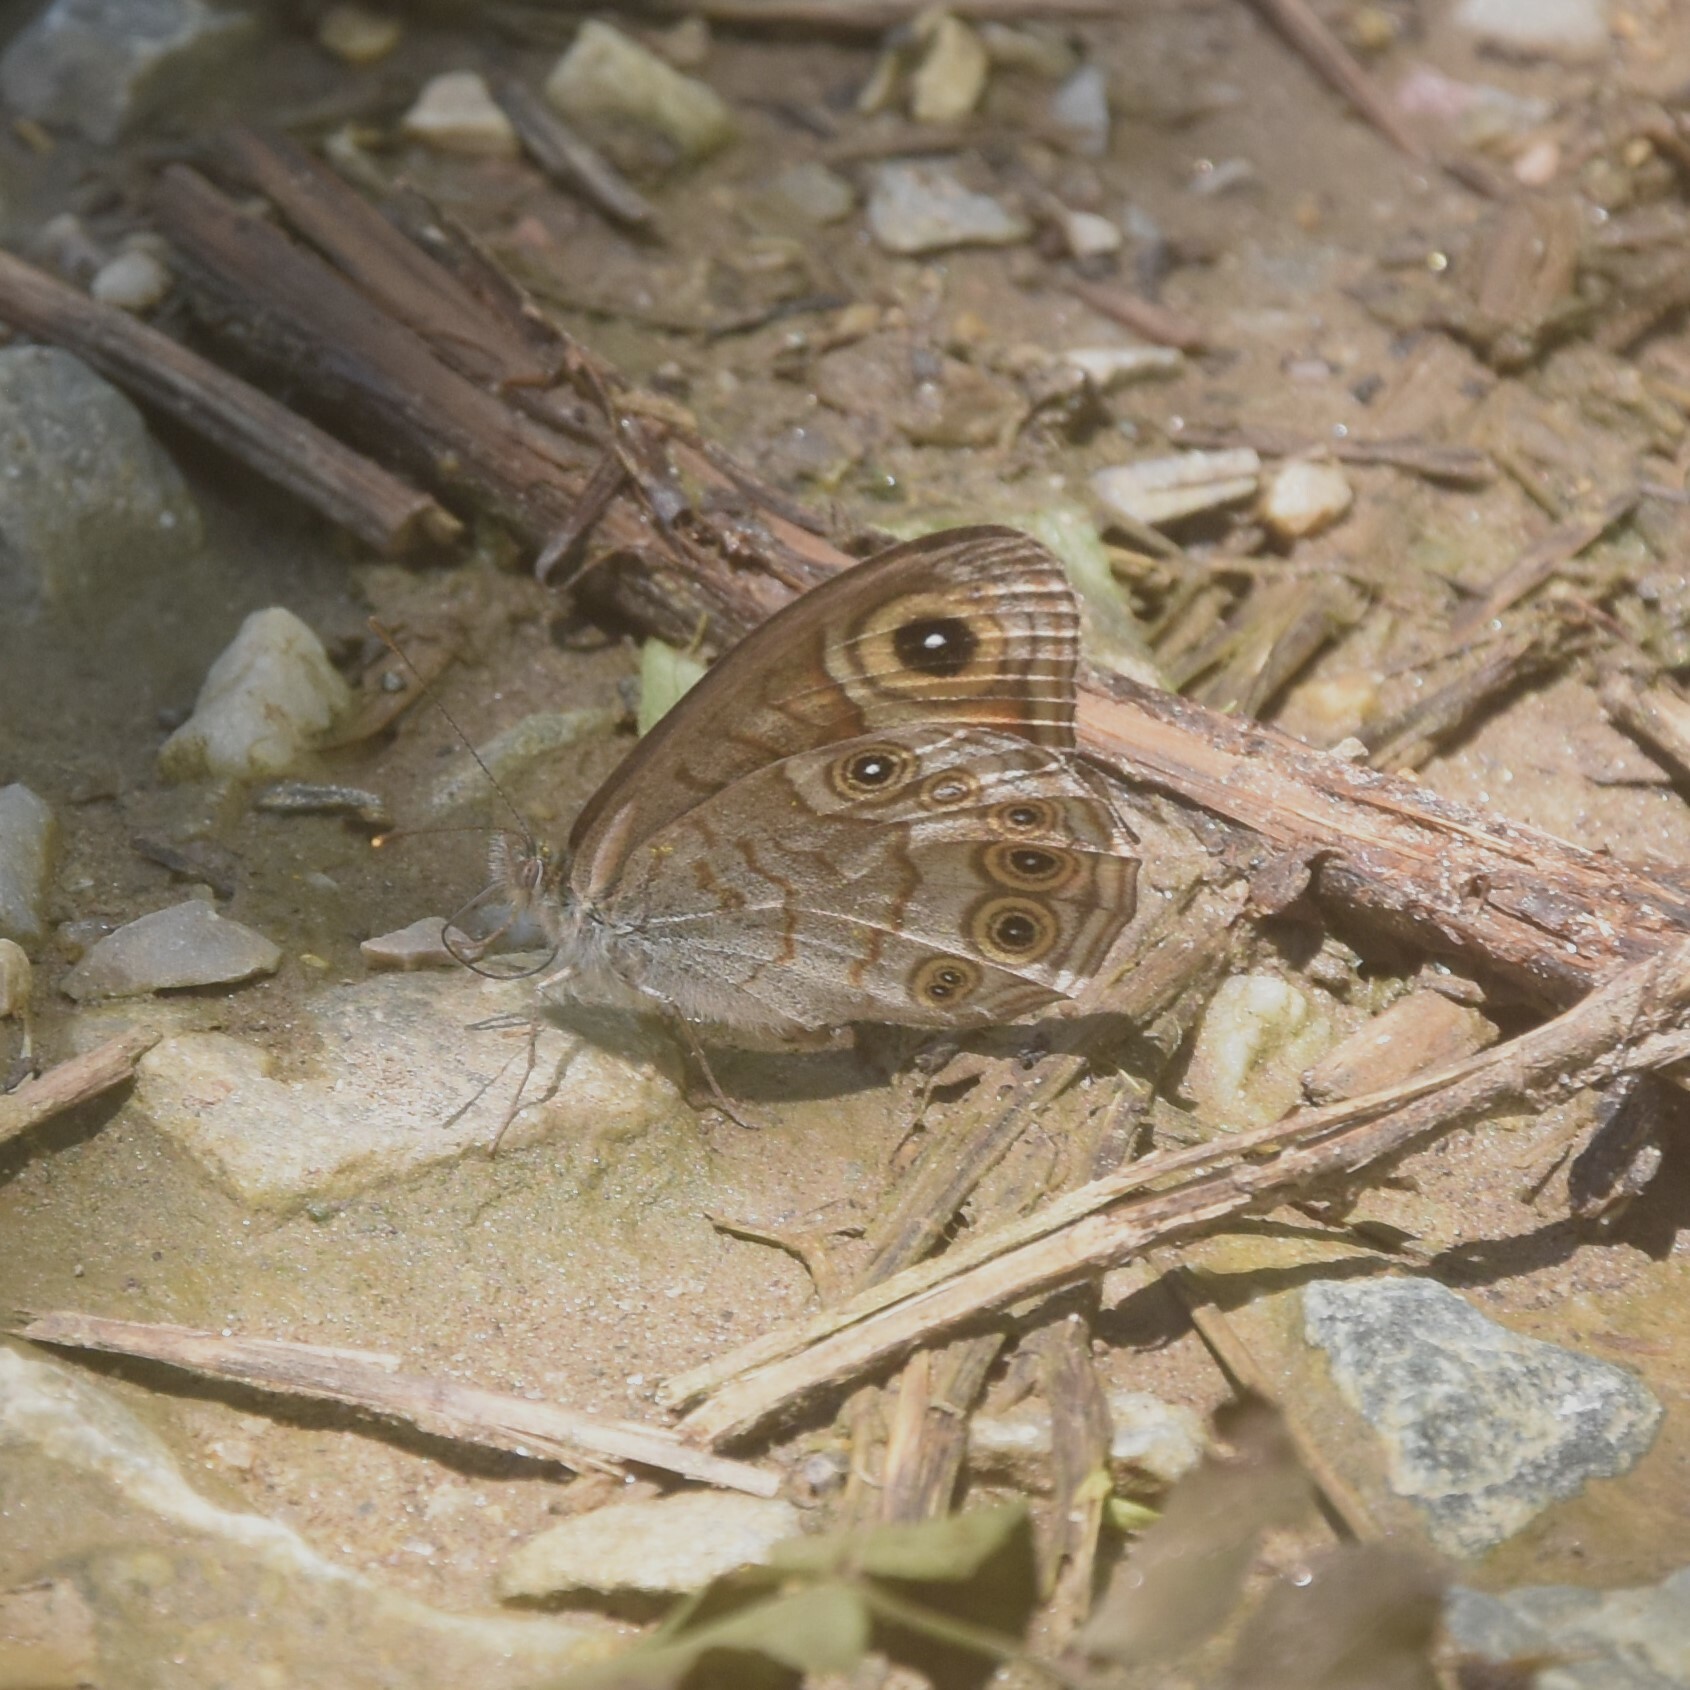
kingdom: Animalia
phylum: Arthropoda
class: Insecta
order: Lepidoptera
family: Nymphalidae
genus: Pararge
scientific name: Pararge Lasiommata schakra
